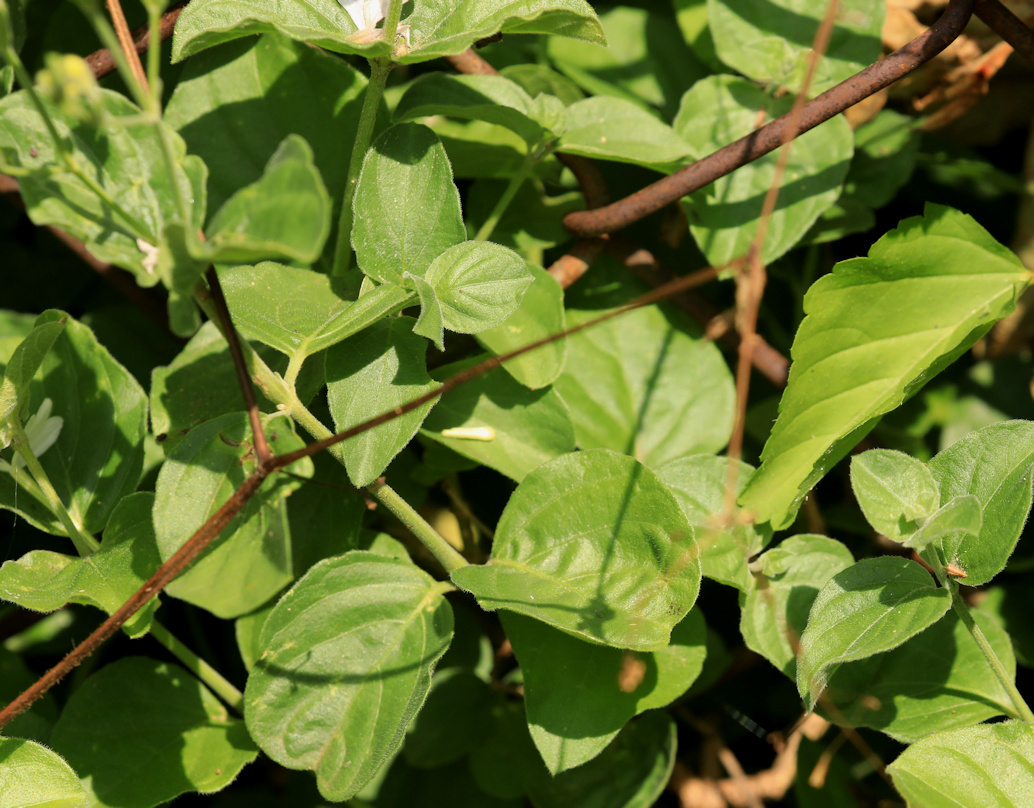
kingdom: Plantae
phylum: Tracheophyta
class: Magnoliopsida
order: Lamiales
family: Acanthaceae
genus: Rhinacanthus
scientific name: Rhinacanthus xerophilus
